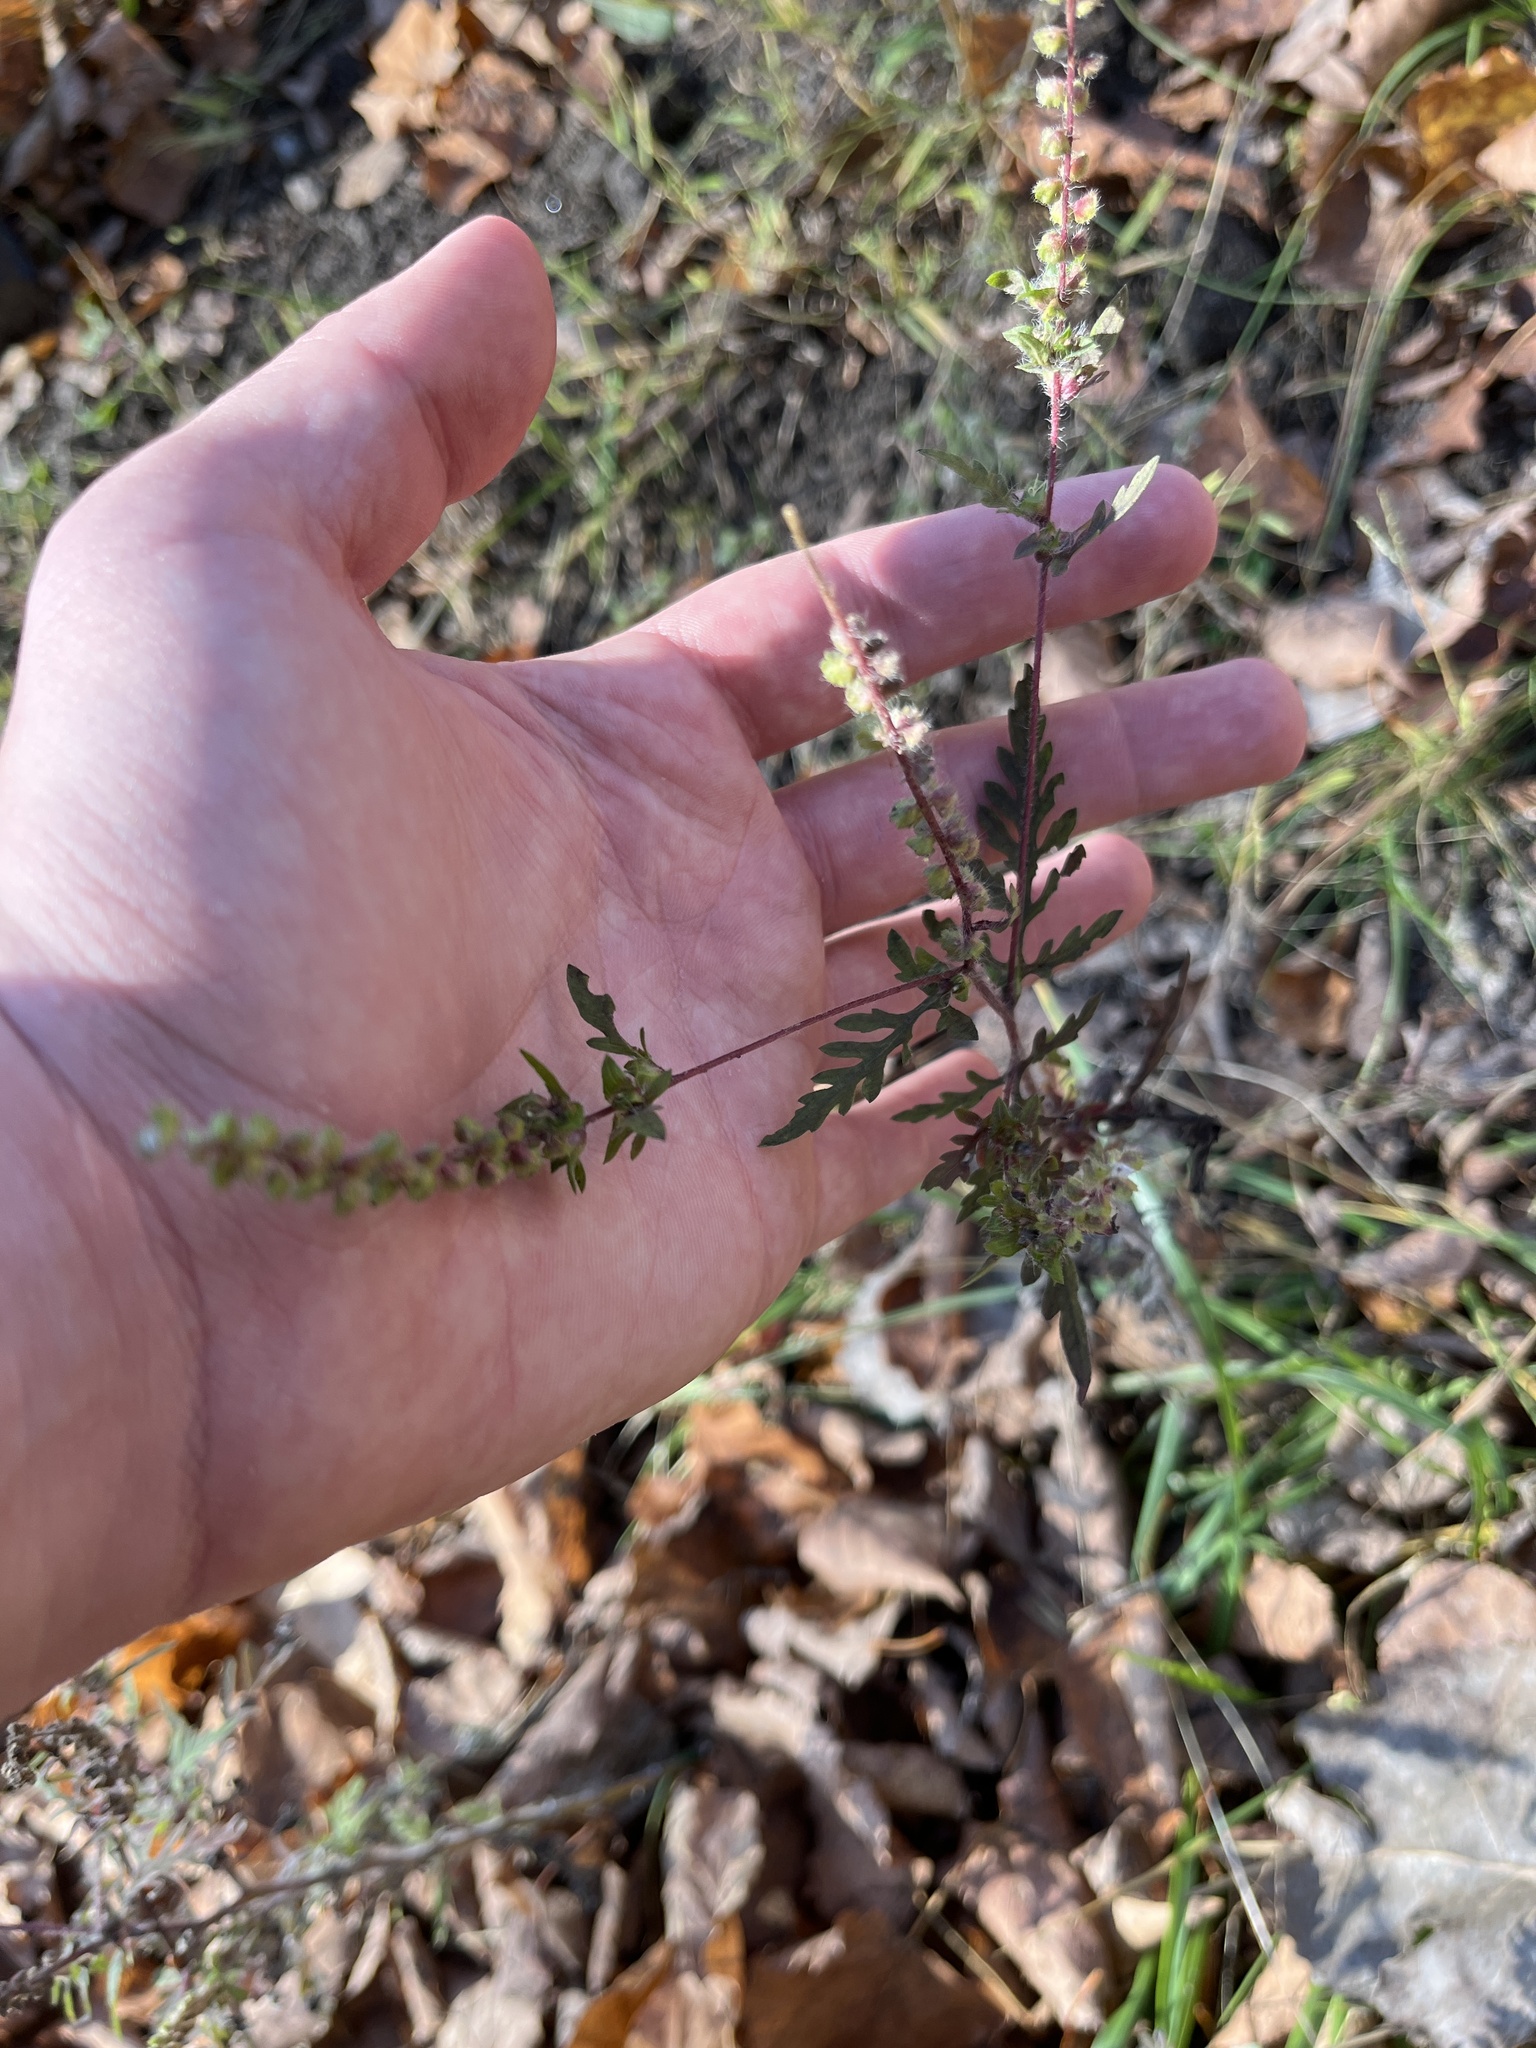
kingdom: Plantae
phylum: Tracheophyta
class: Magnoliopsida
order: Asterales
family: Asteraceae
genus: Ambrosia
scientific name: Ambrosia artemisiifolia
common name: Annual ragweed
